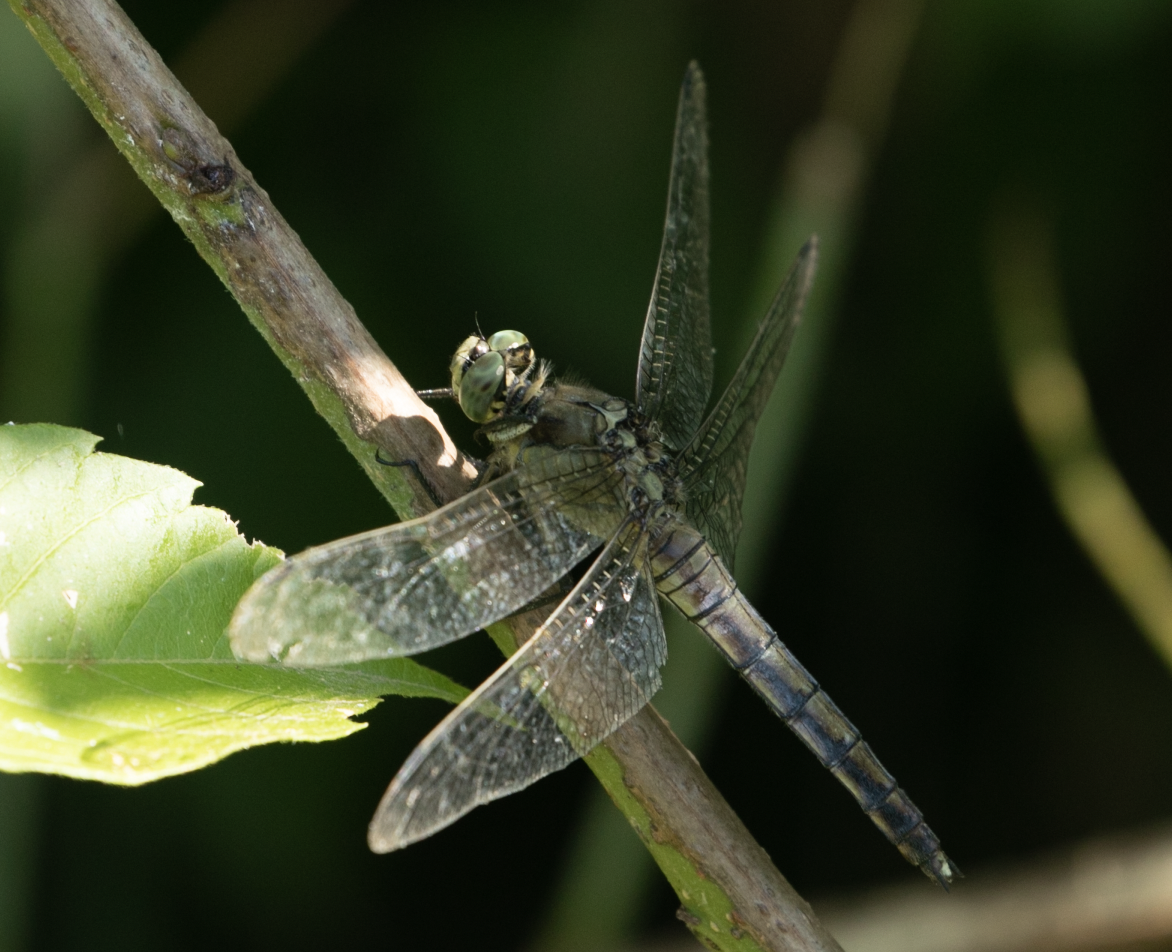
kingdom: Animalia
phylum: Arthropoda
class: Insecta
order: Odonata
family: Libellulidae
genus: Orthetrum
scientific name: Orthetrum cancellatum
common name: Black-tailed skimmer
